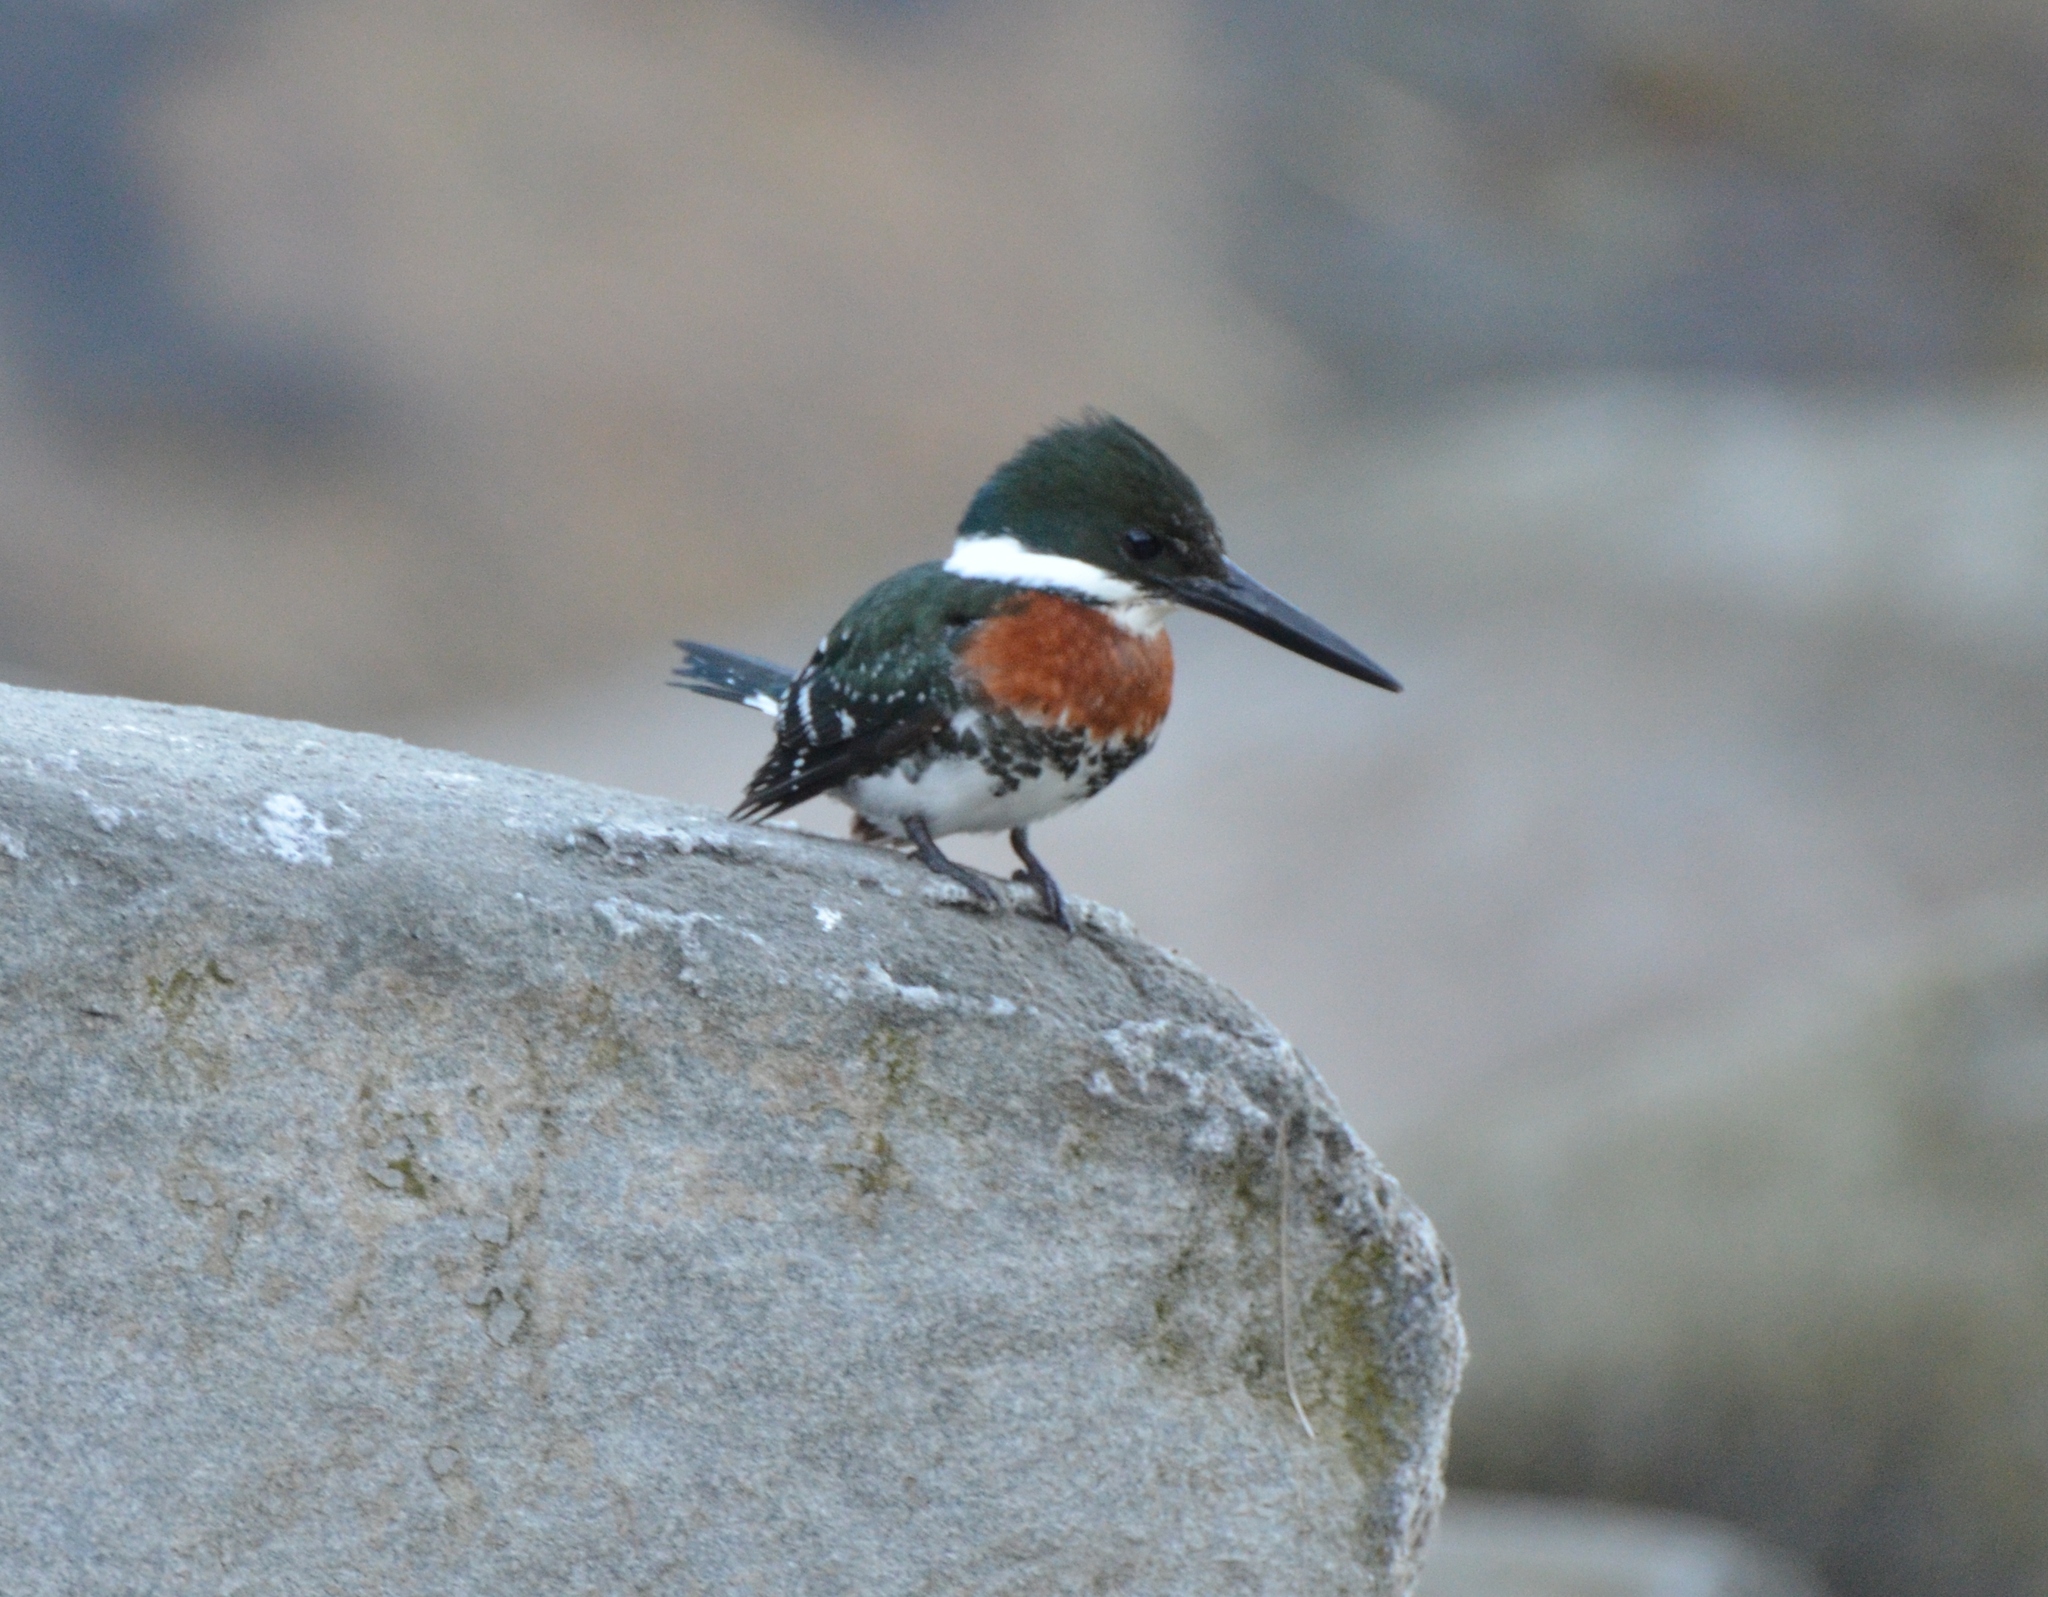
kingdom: Animalia
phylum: Chordata
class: Aves
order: Coraciiformes
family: Alcedinidae
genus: Chloroceryle
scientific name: Chloroceryle americana
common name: Green kingfisher
